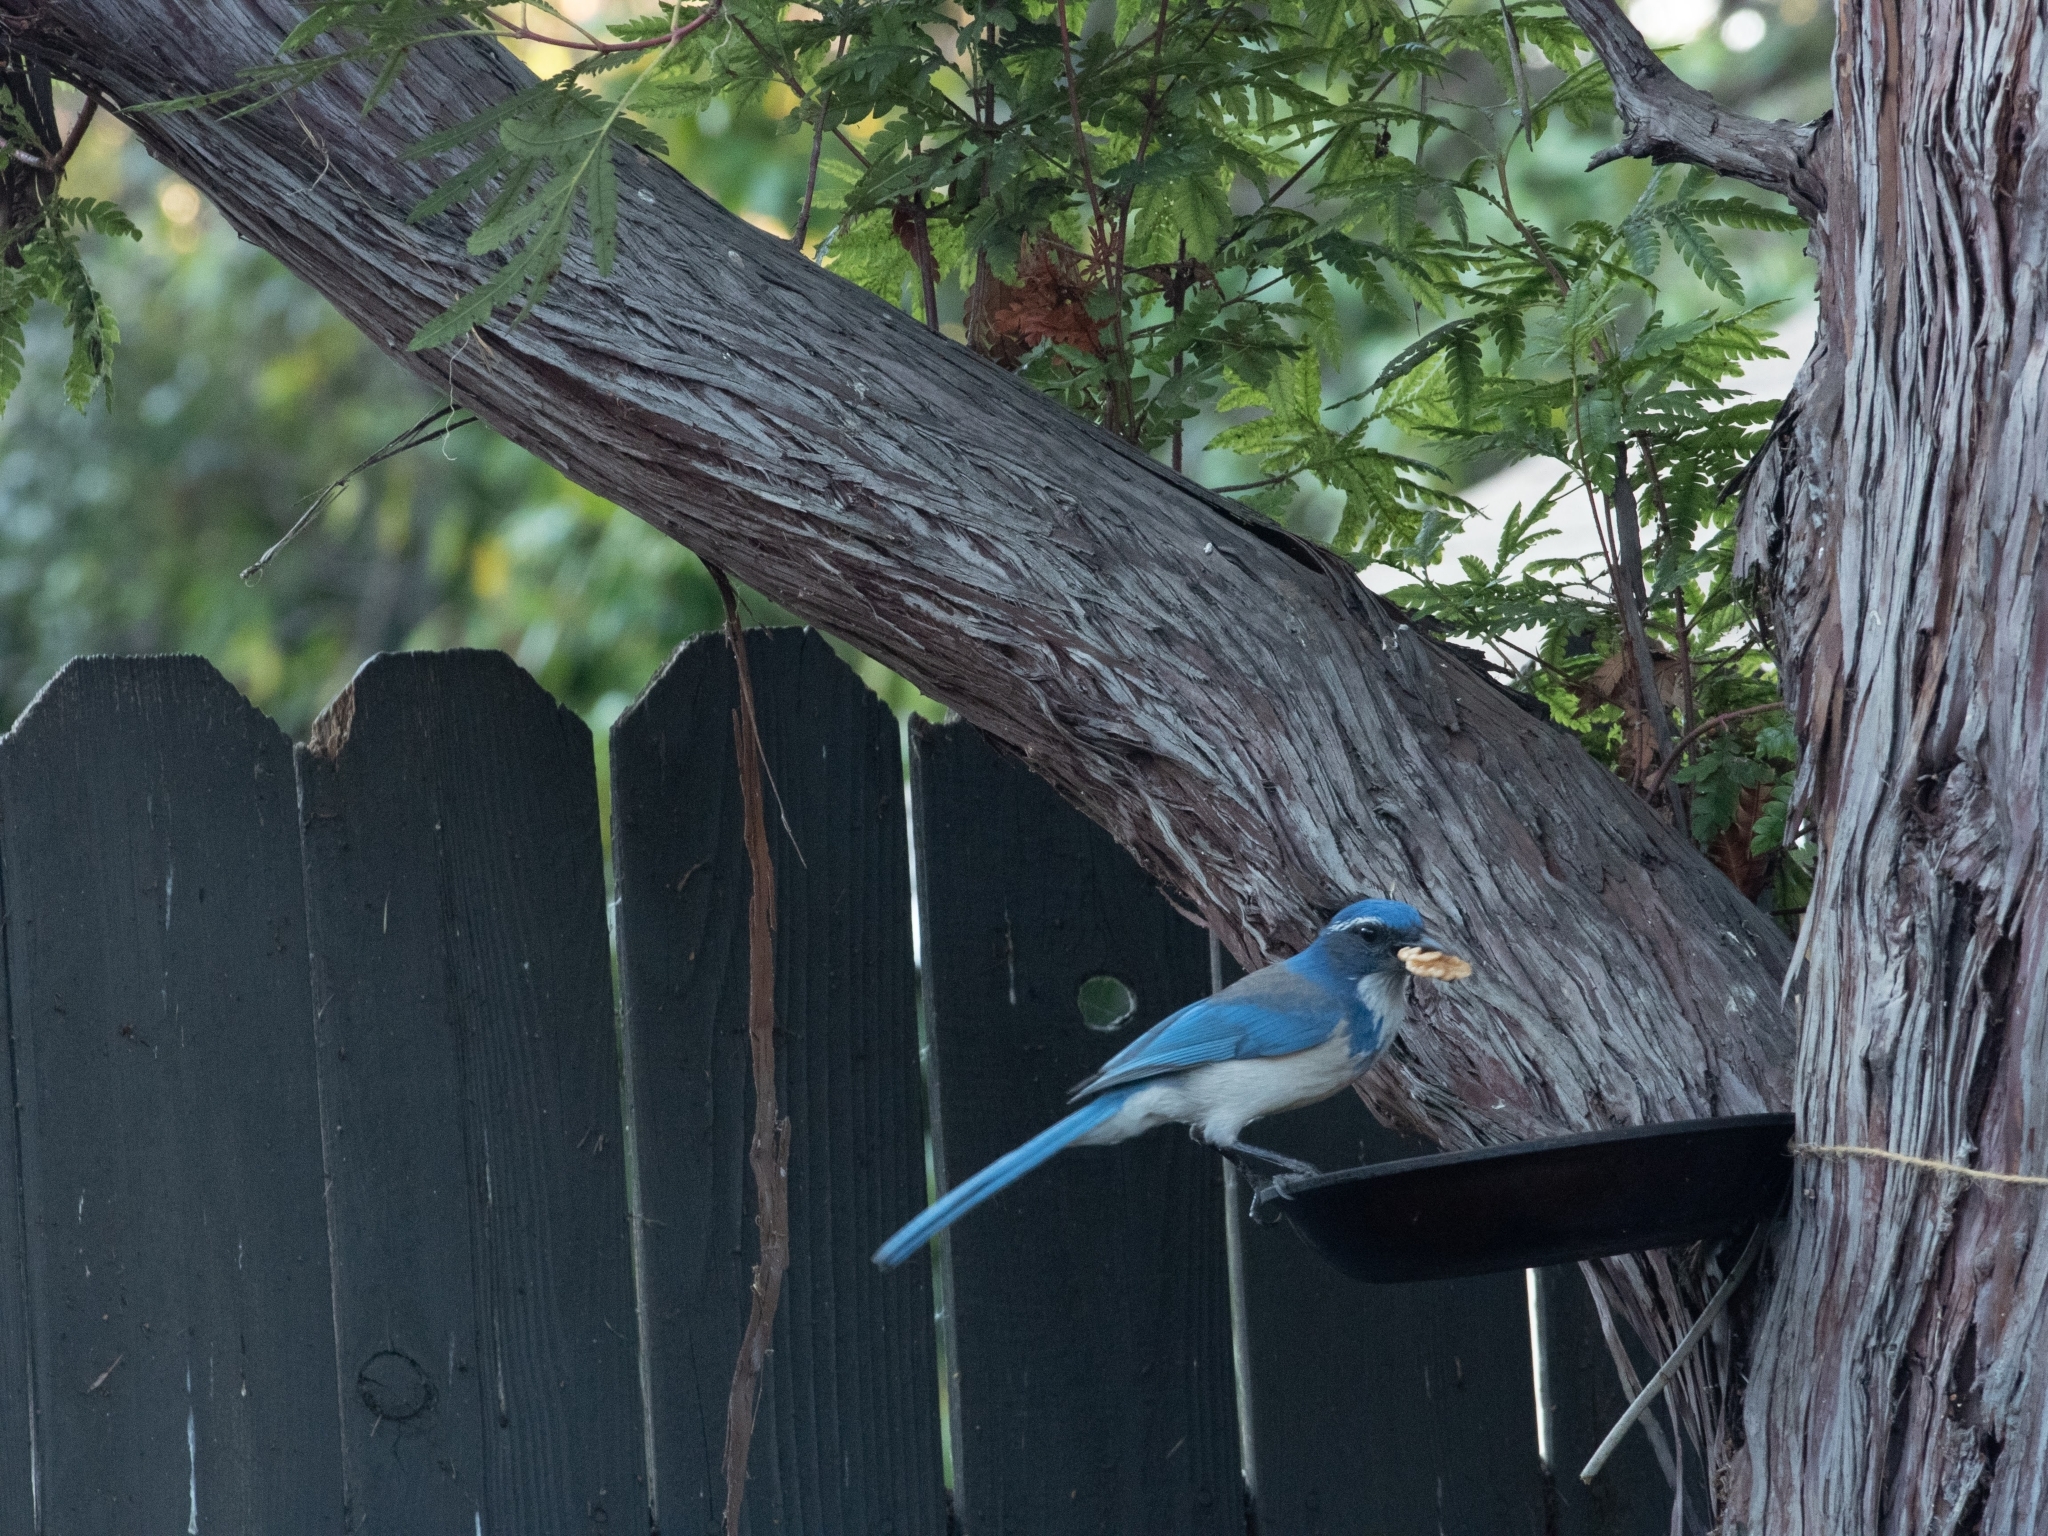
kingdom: Animalia
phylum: Chordata
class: Aves
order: Passeriformes
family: Corvidae
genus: Aphelocoma
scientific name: Aphelocoma californica
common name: California scrub-jay
